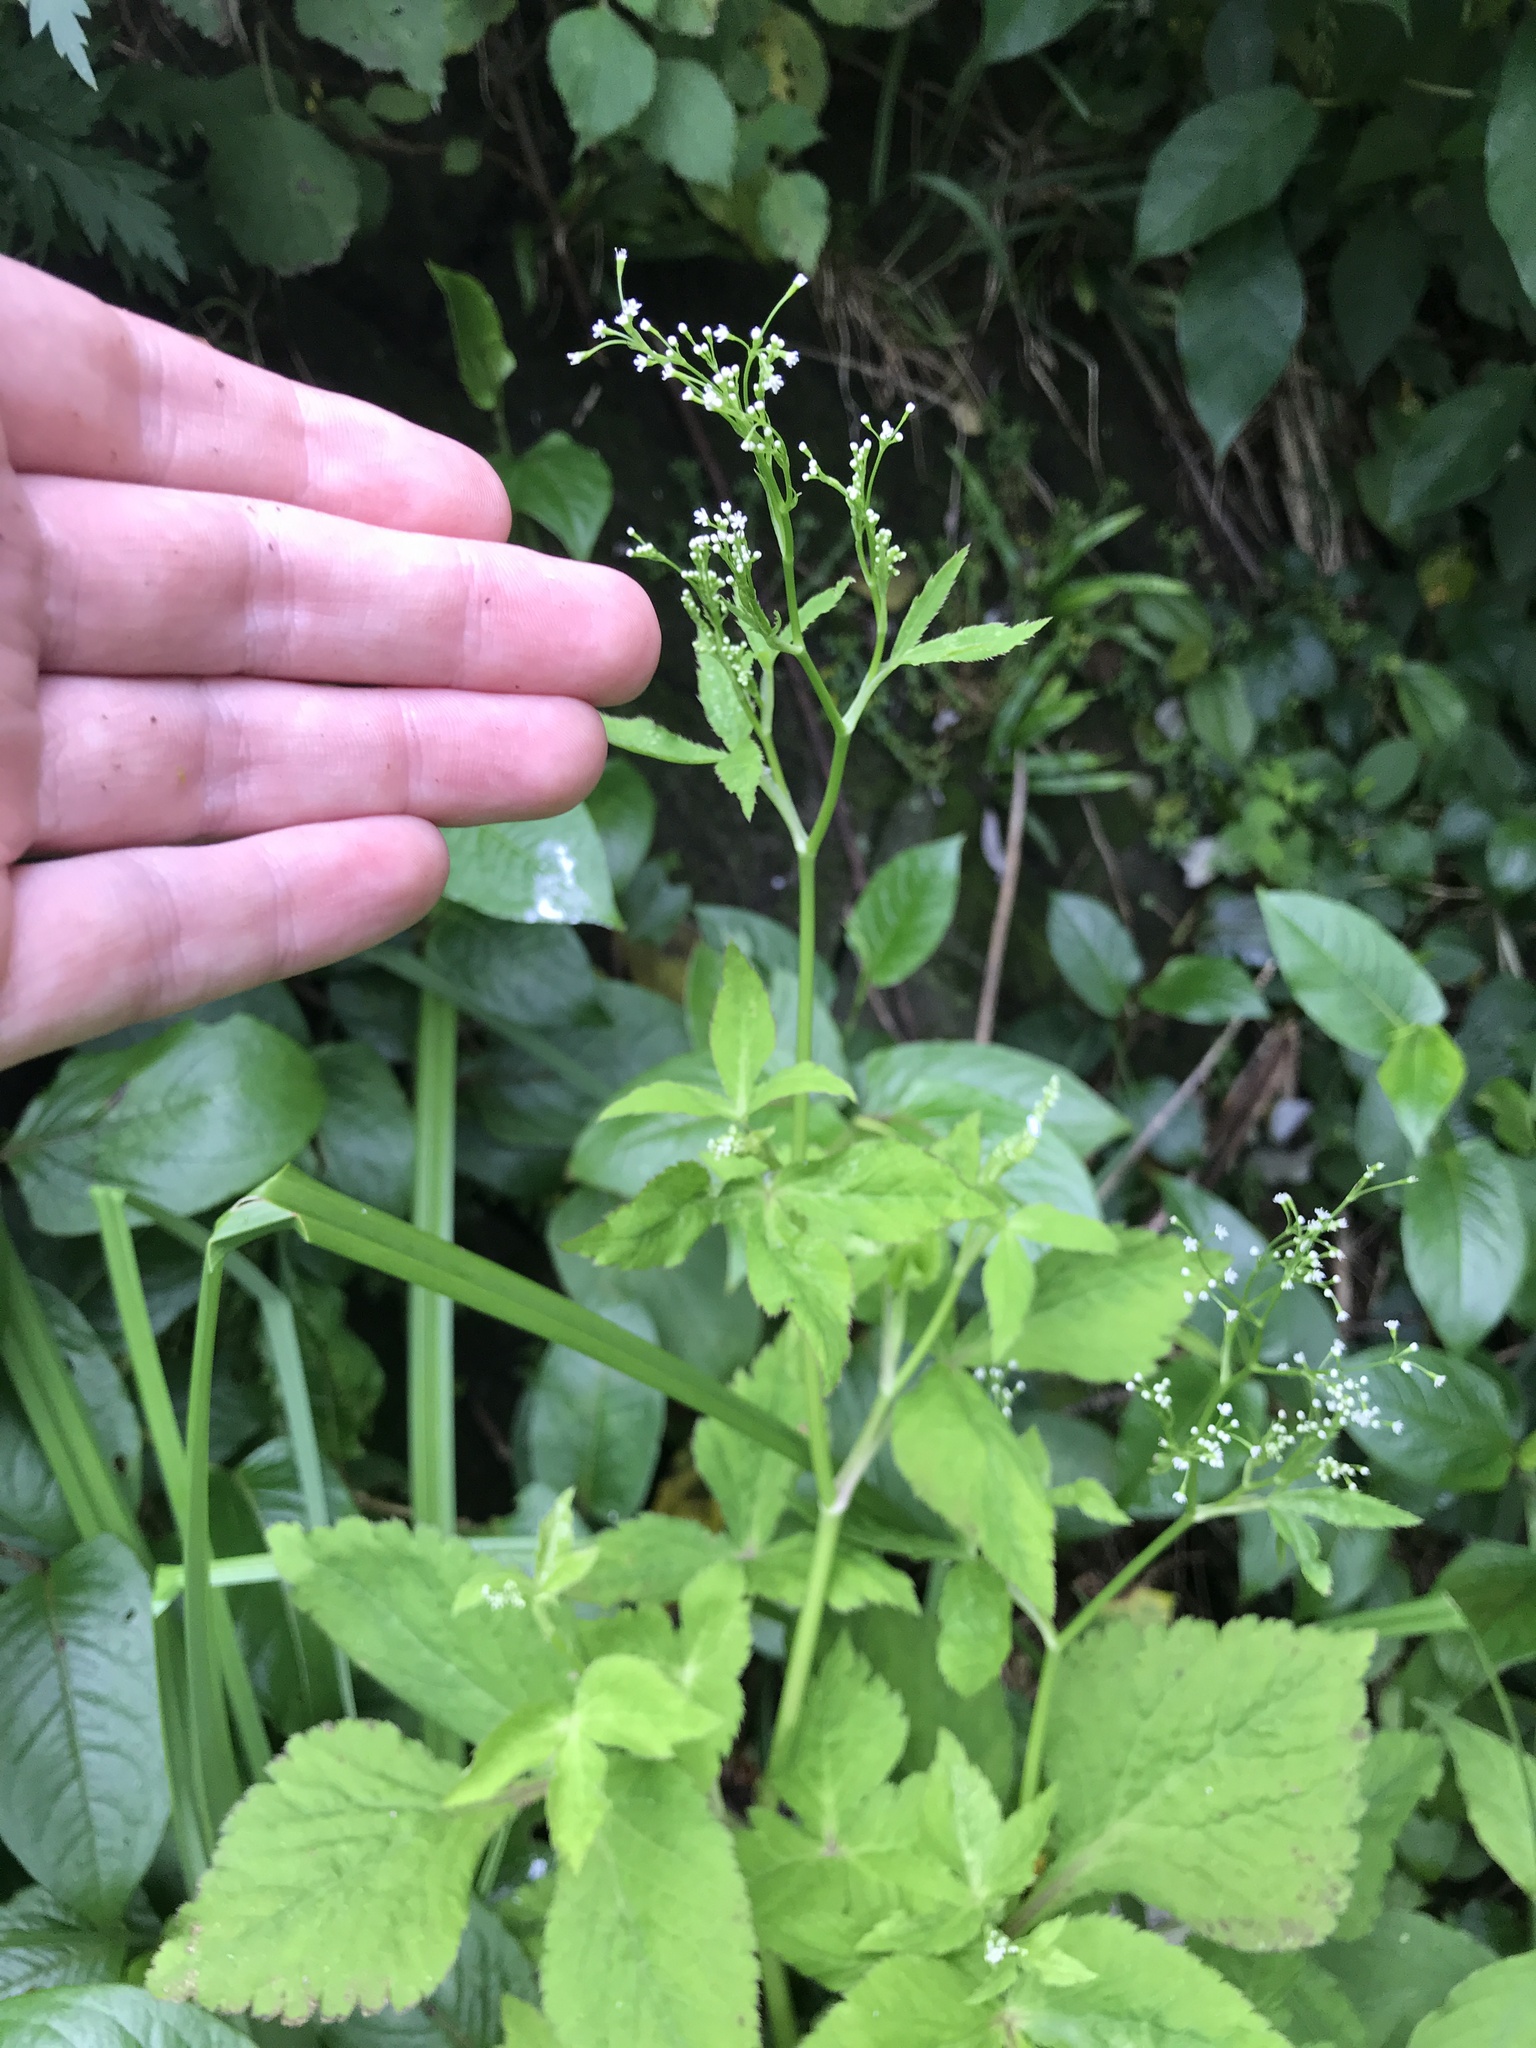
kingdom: Plantae
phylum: Tracheophyta
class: Magnoliopsida
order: Apiales
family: Apiaceae
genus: Cryptotaenia
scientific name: Cryptotaenia japonica
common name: Japanese cryptotaenia
